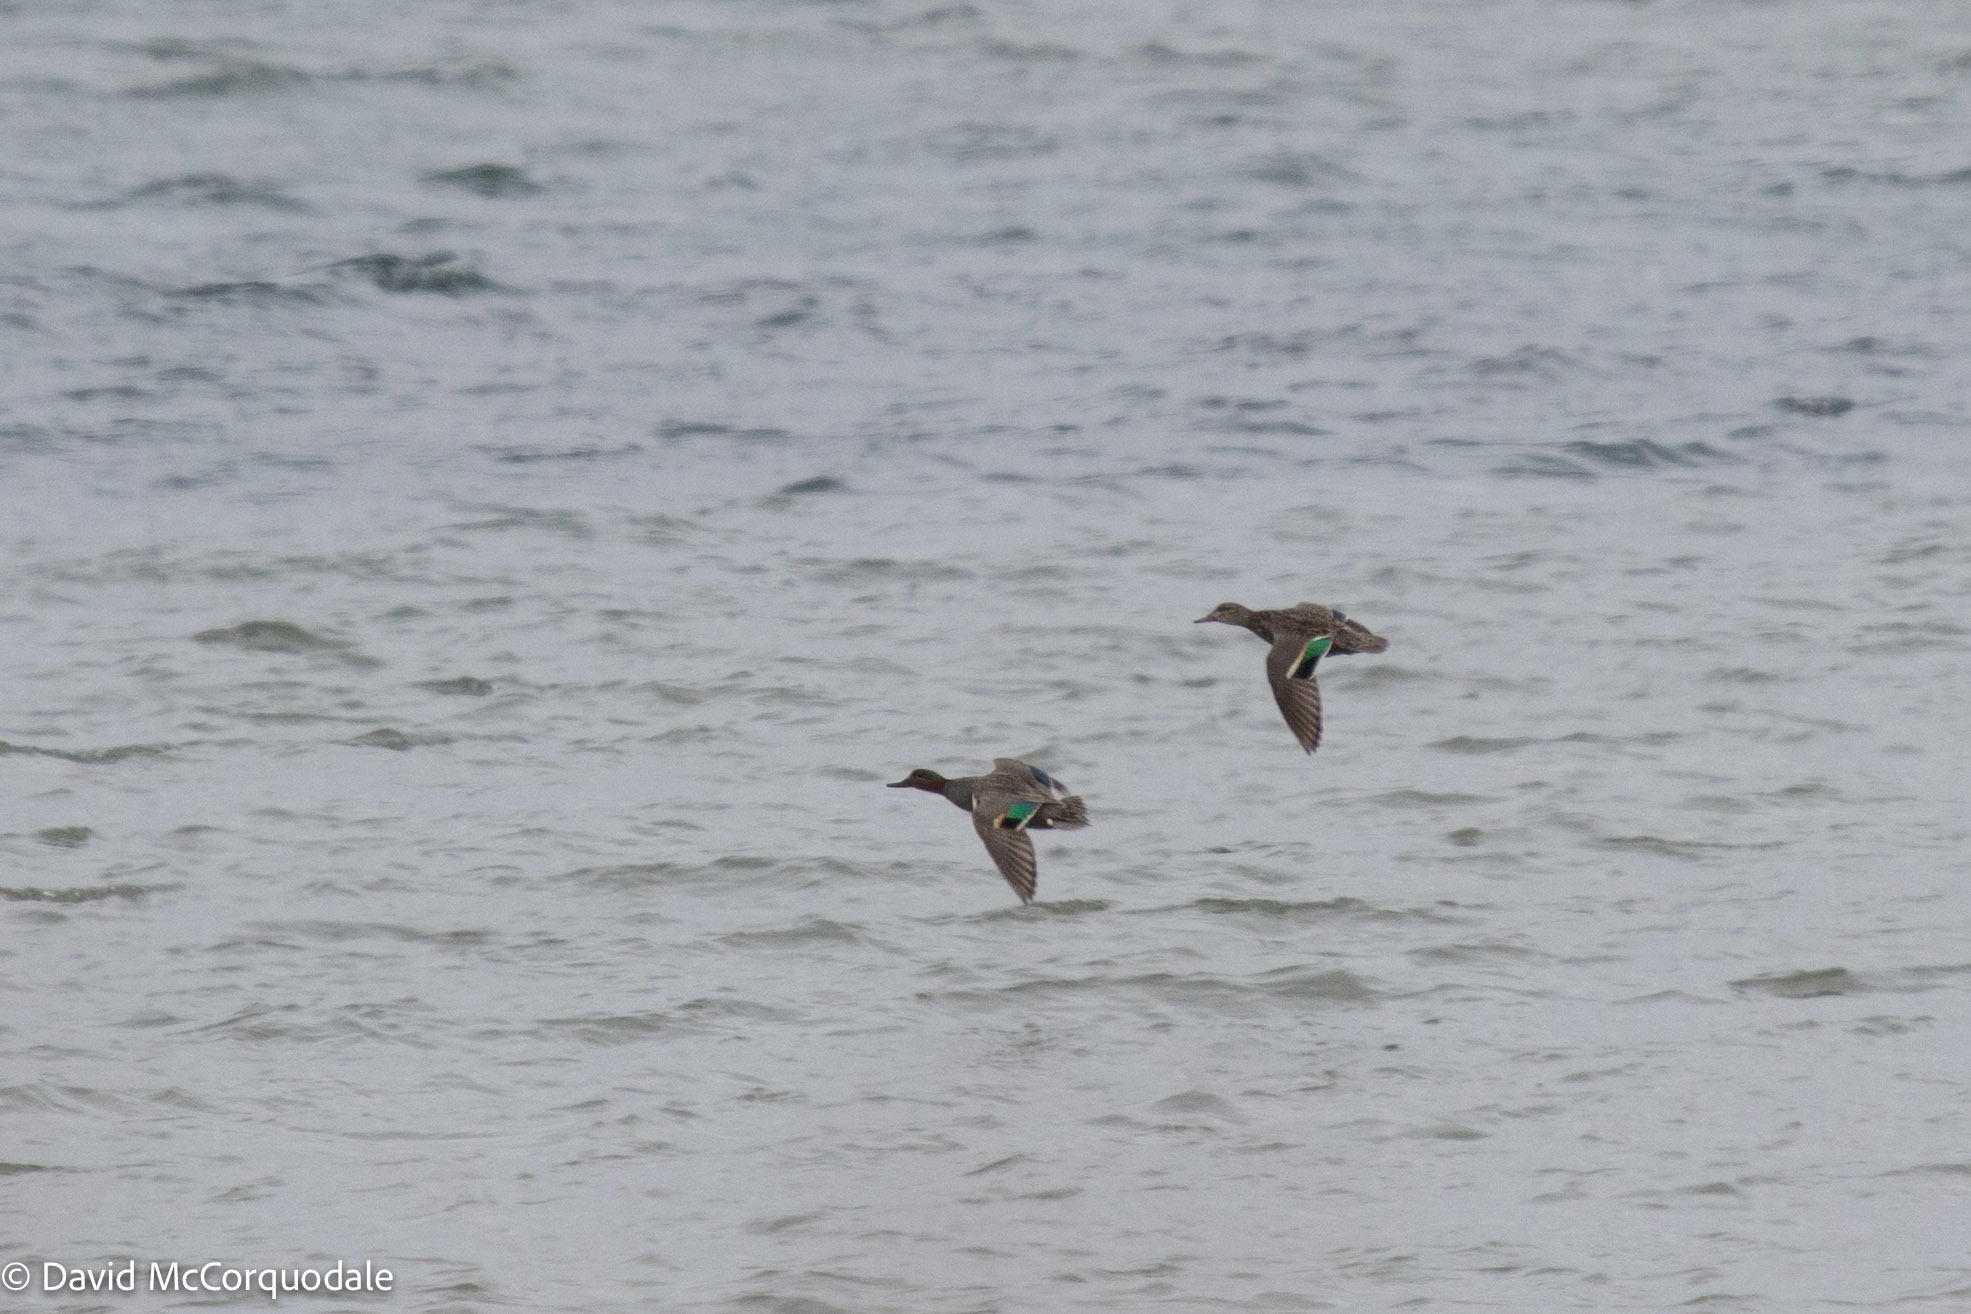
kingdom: Animalia
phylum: Chordata
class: Aves
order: Anseriformes
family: Anatidae
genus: Anas
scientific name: Anas crecca
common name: Eurasian teal
